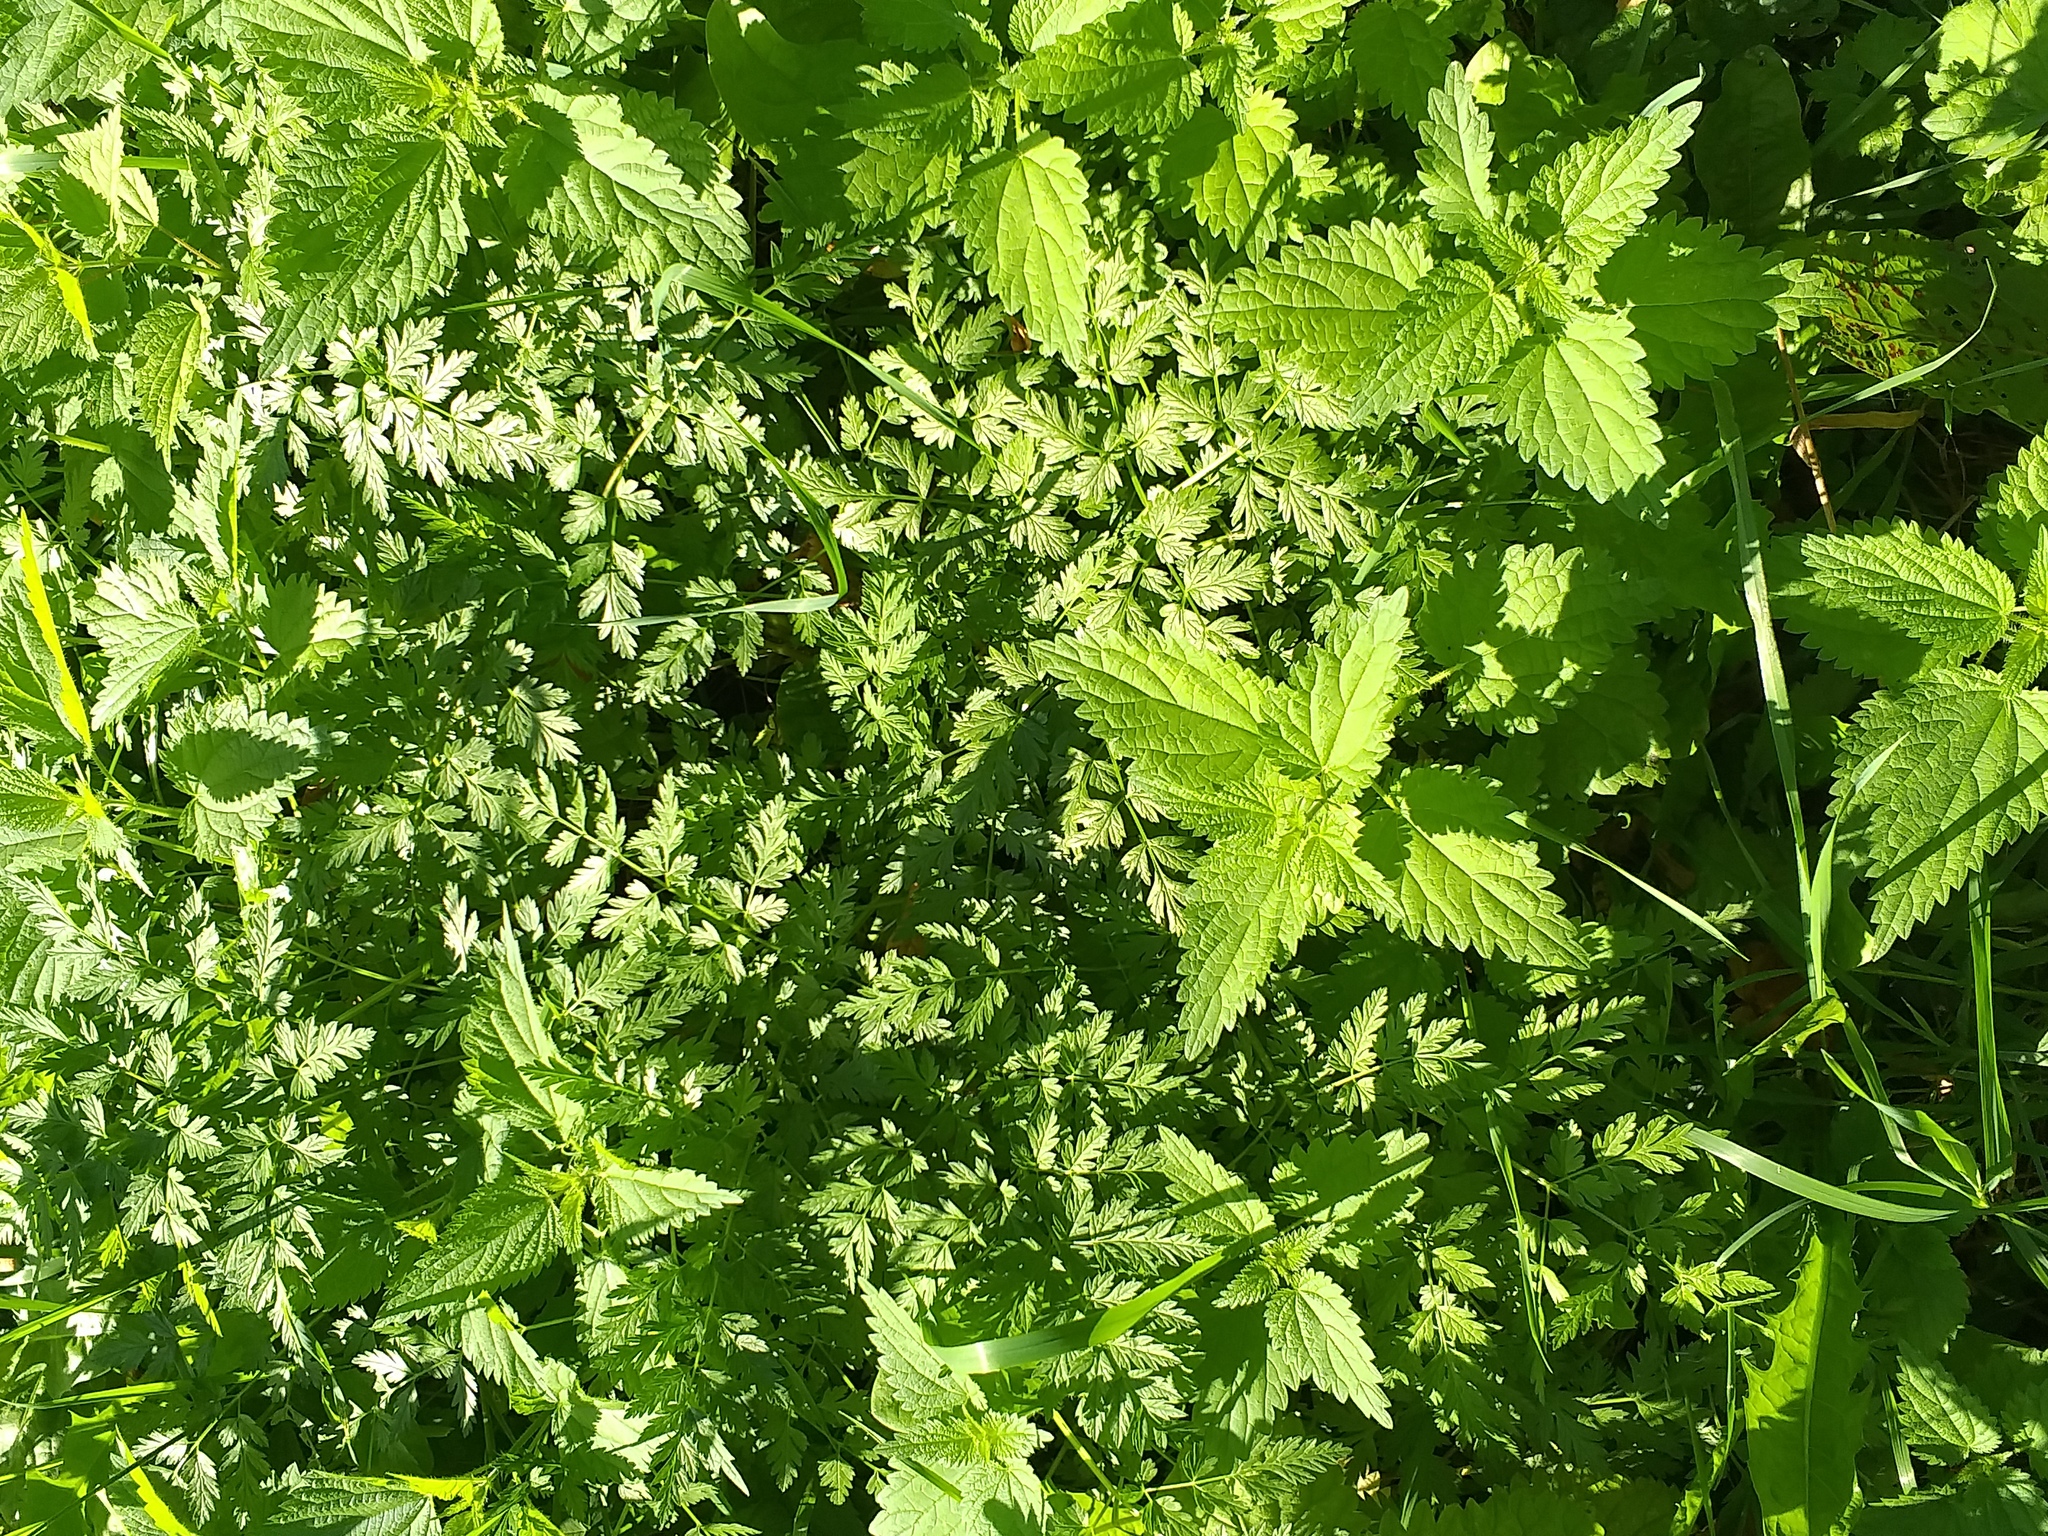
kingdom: Plantae
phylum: Tracheophyta
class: Magnoliopsida
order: Apiales
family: Apiaceae
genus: Anthriscus
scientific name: Anthriscus sylvestris
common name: Cow parsley
